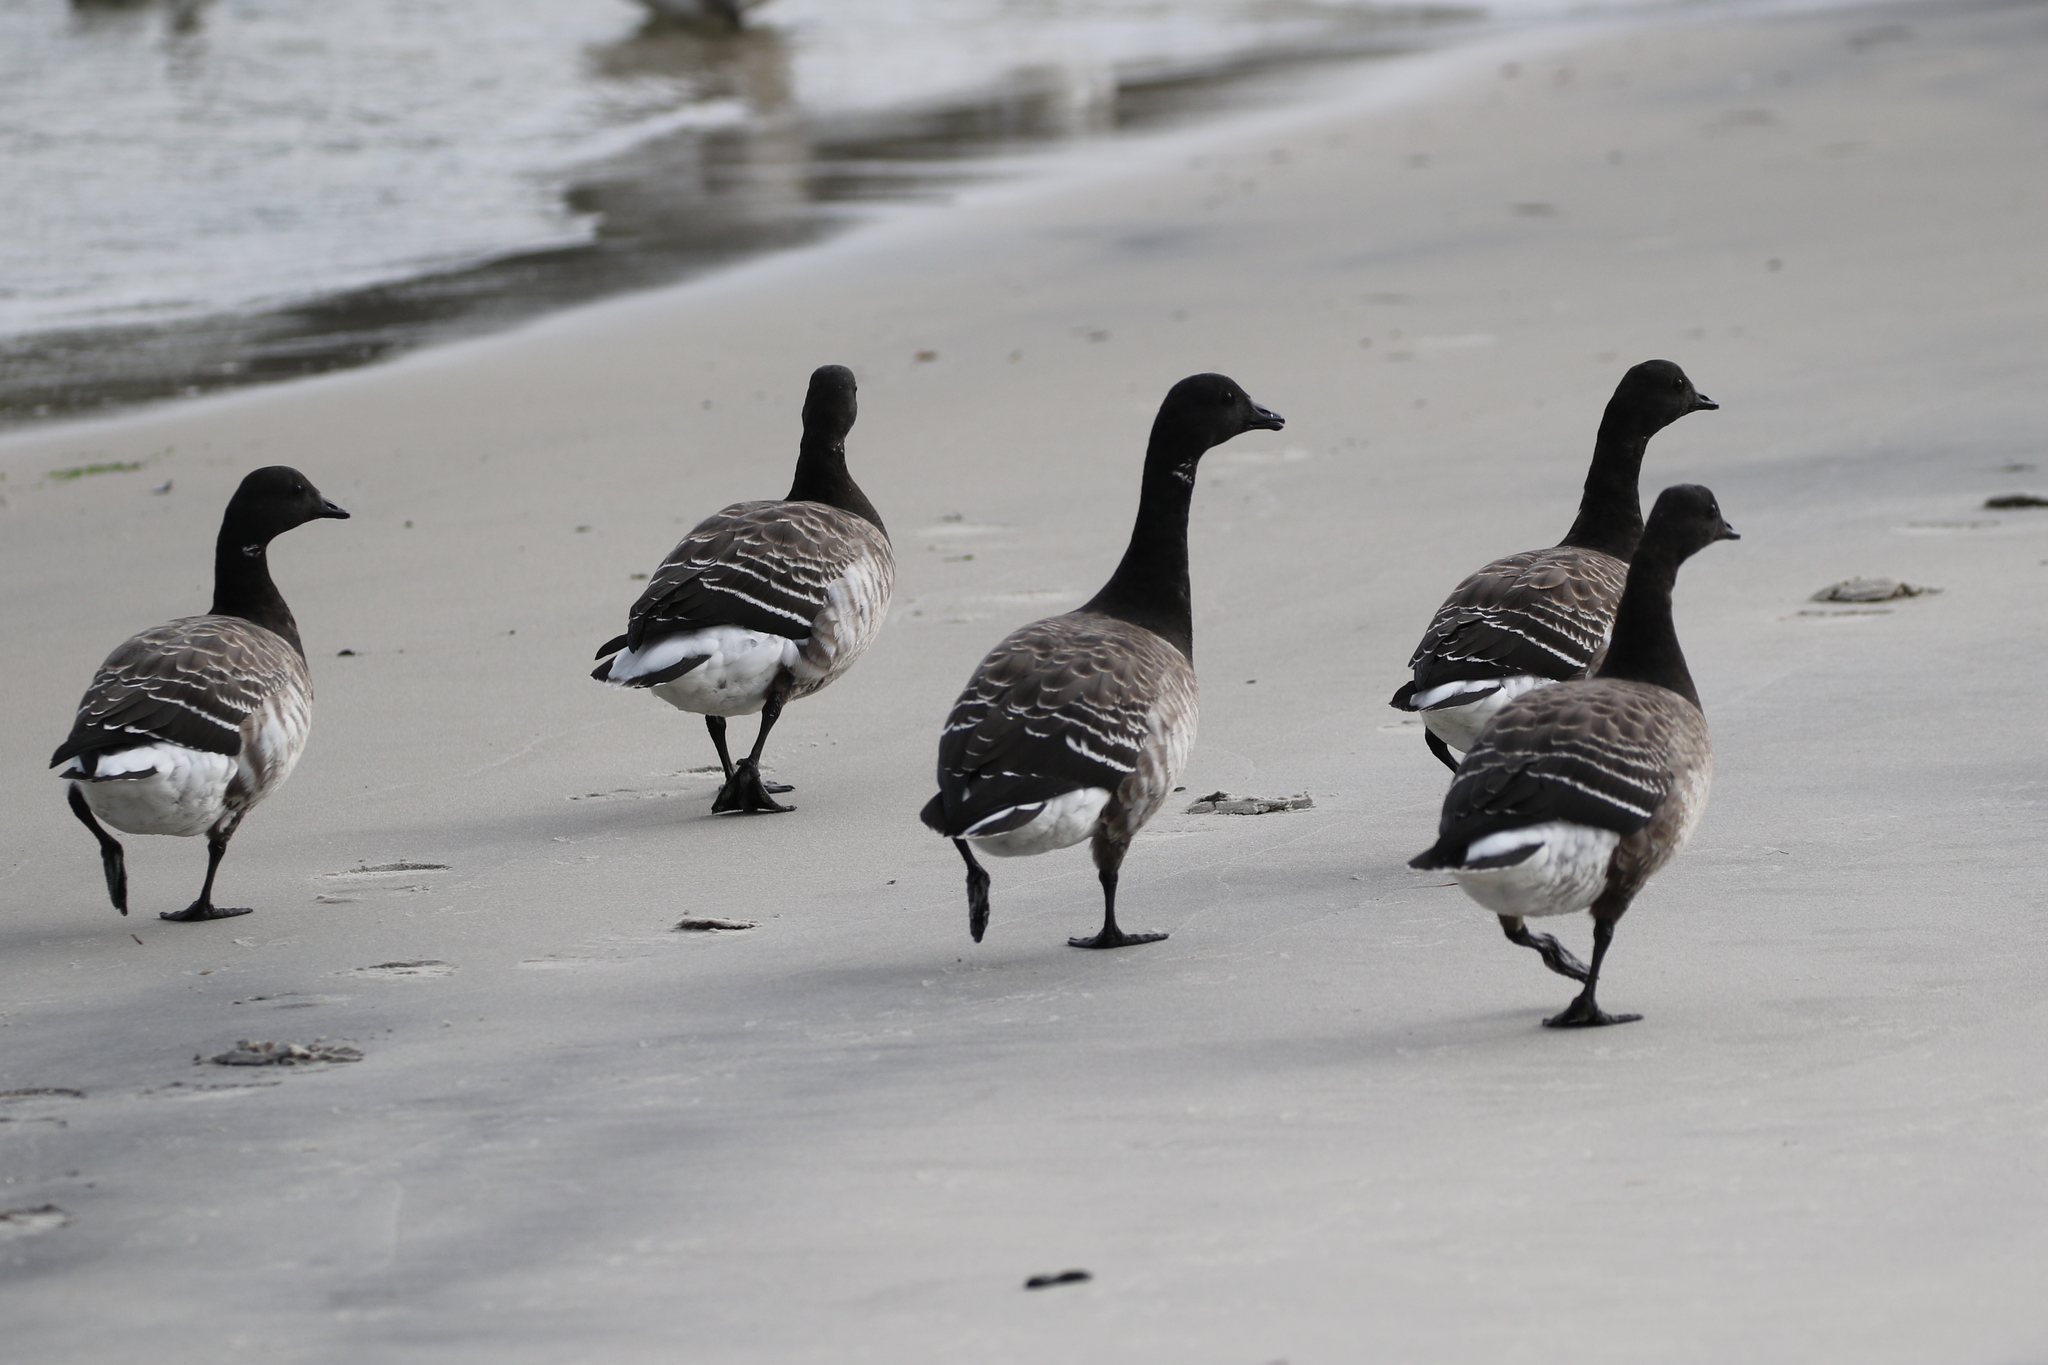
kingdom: Animalia
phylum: Chordata
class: Aves
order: Anseriformes
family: Anatidae
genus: Branta
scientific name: Branta bernicla
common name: Brant goose
